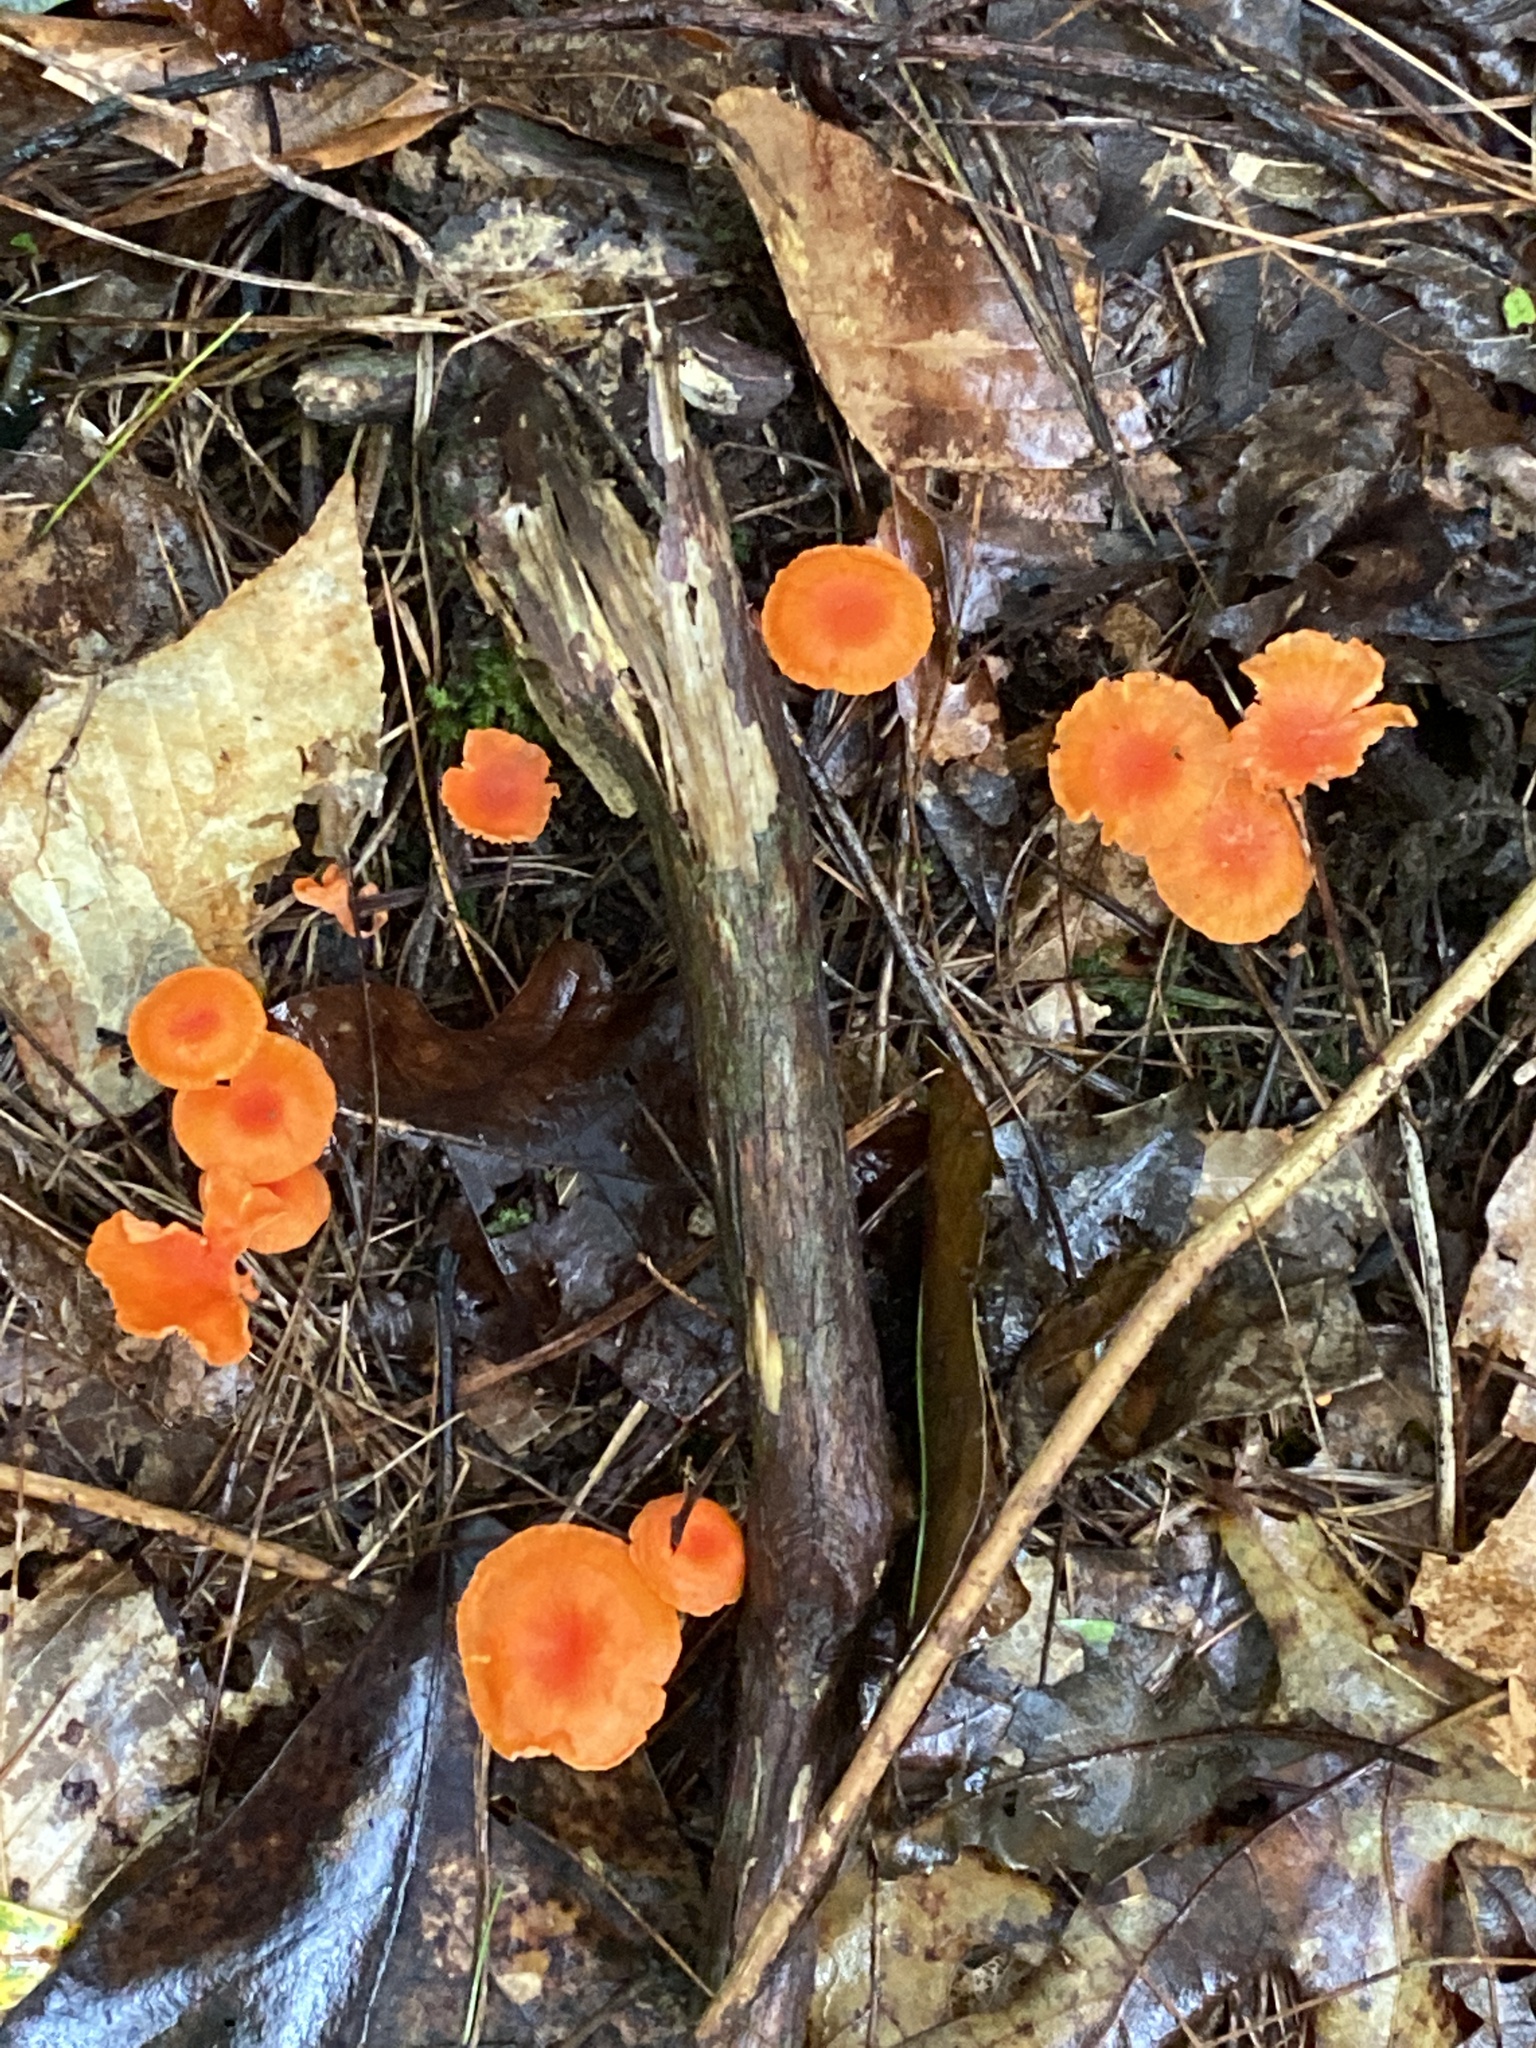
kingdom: Fungi
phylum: Basidiomycota
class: Agaricomycetes
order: Cantharellales
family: Hydnaceae
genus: Cantharellus
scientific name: Cantharellus cinnabarinus
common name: Cinnabar chanterelle
